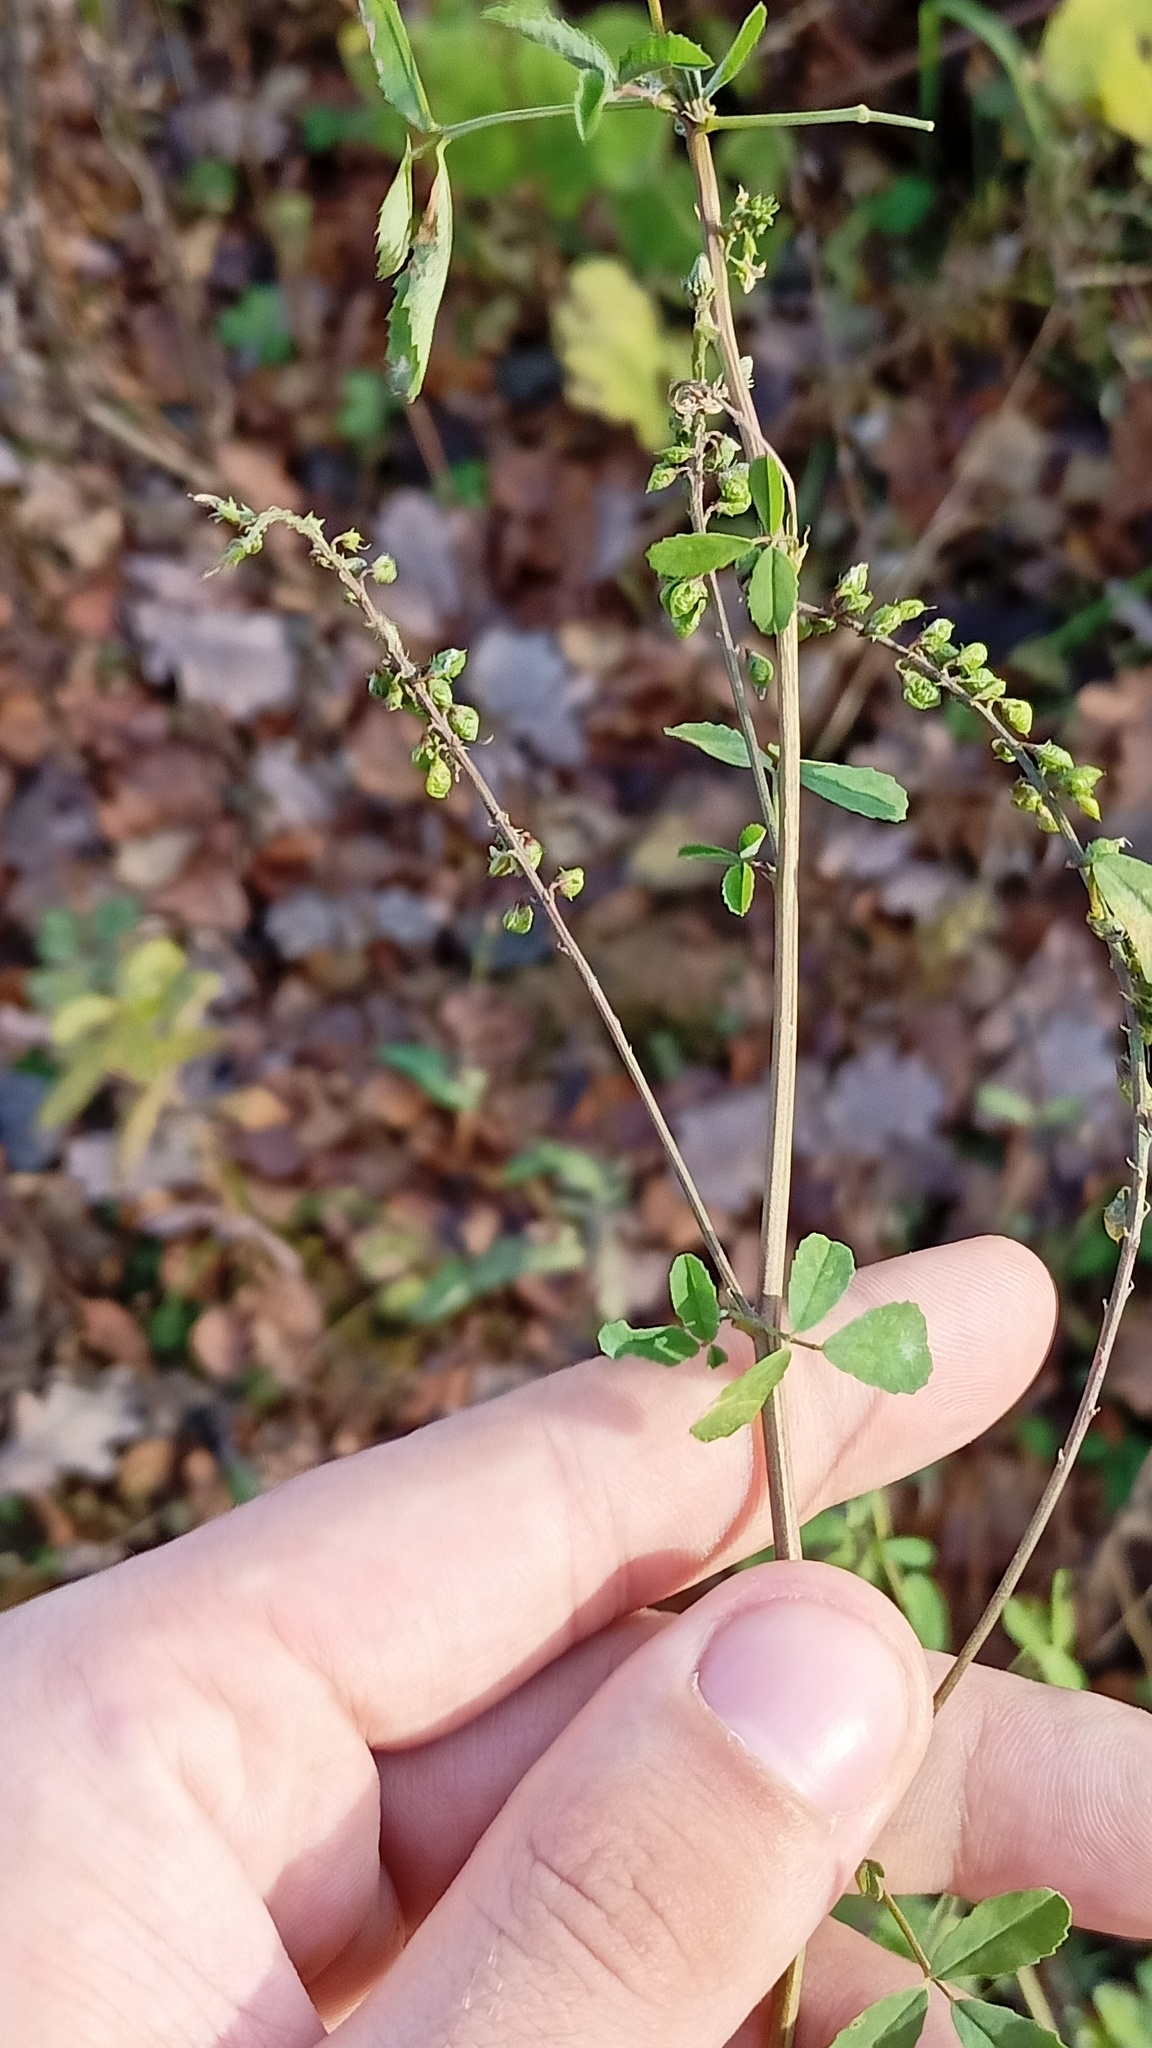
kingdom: Plantae
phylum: Tracheophyta
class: Magnoliopsida
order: Fabales
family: Fabaceae
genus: Melilotus
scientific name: Melilotus
